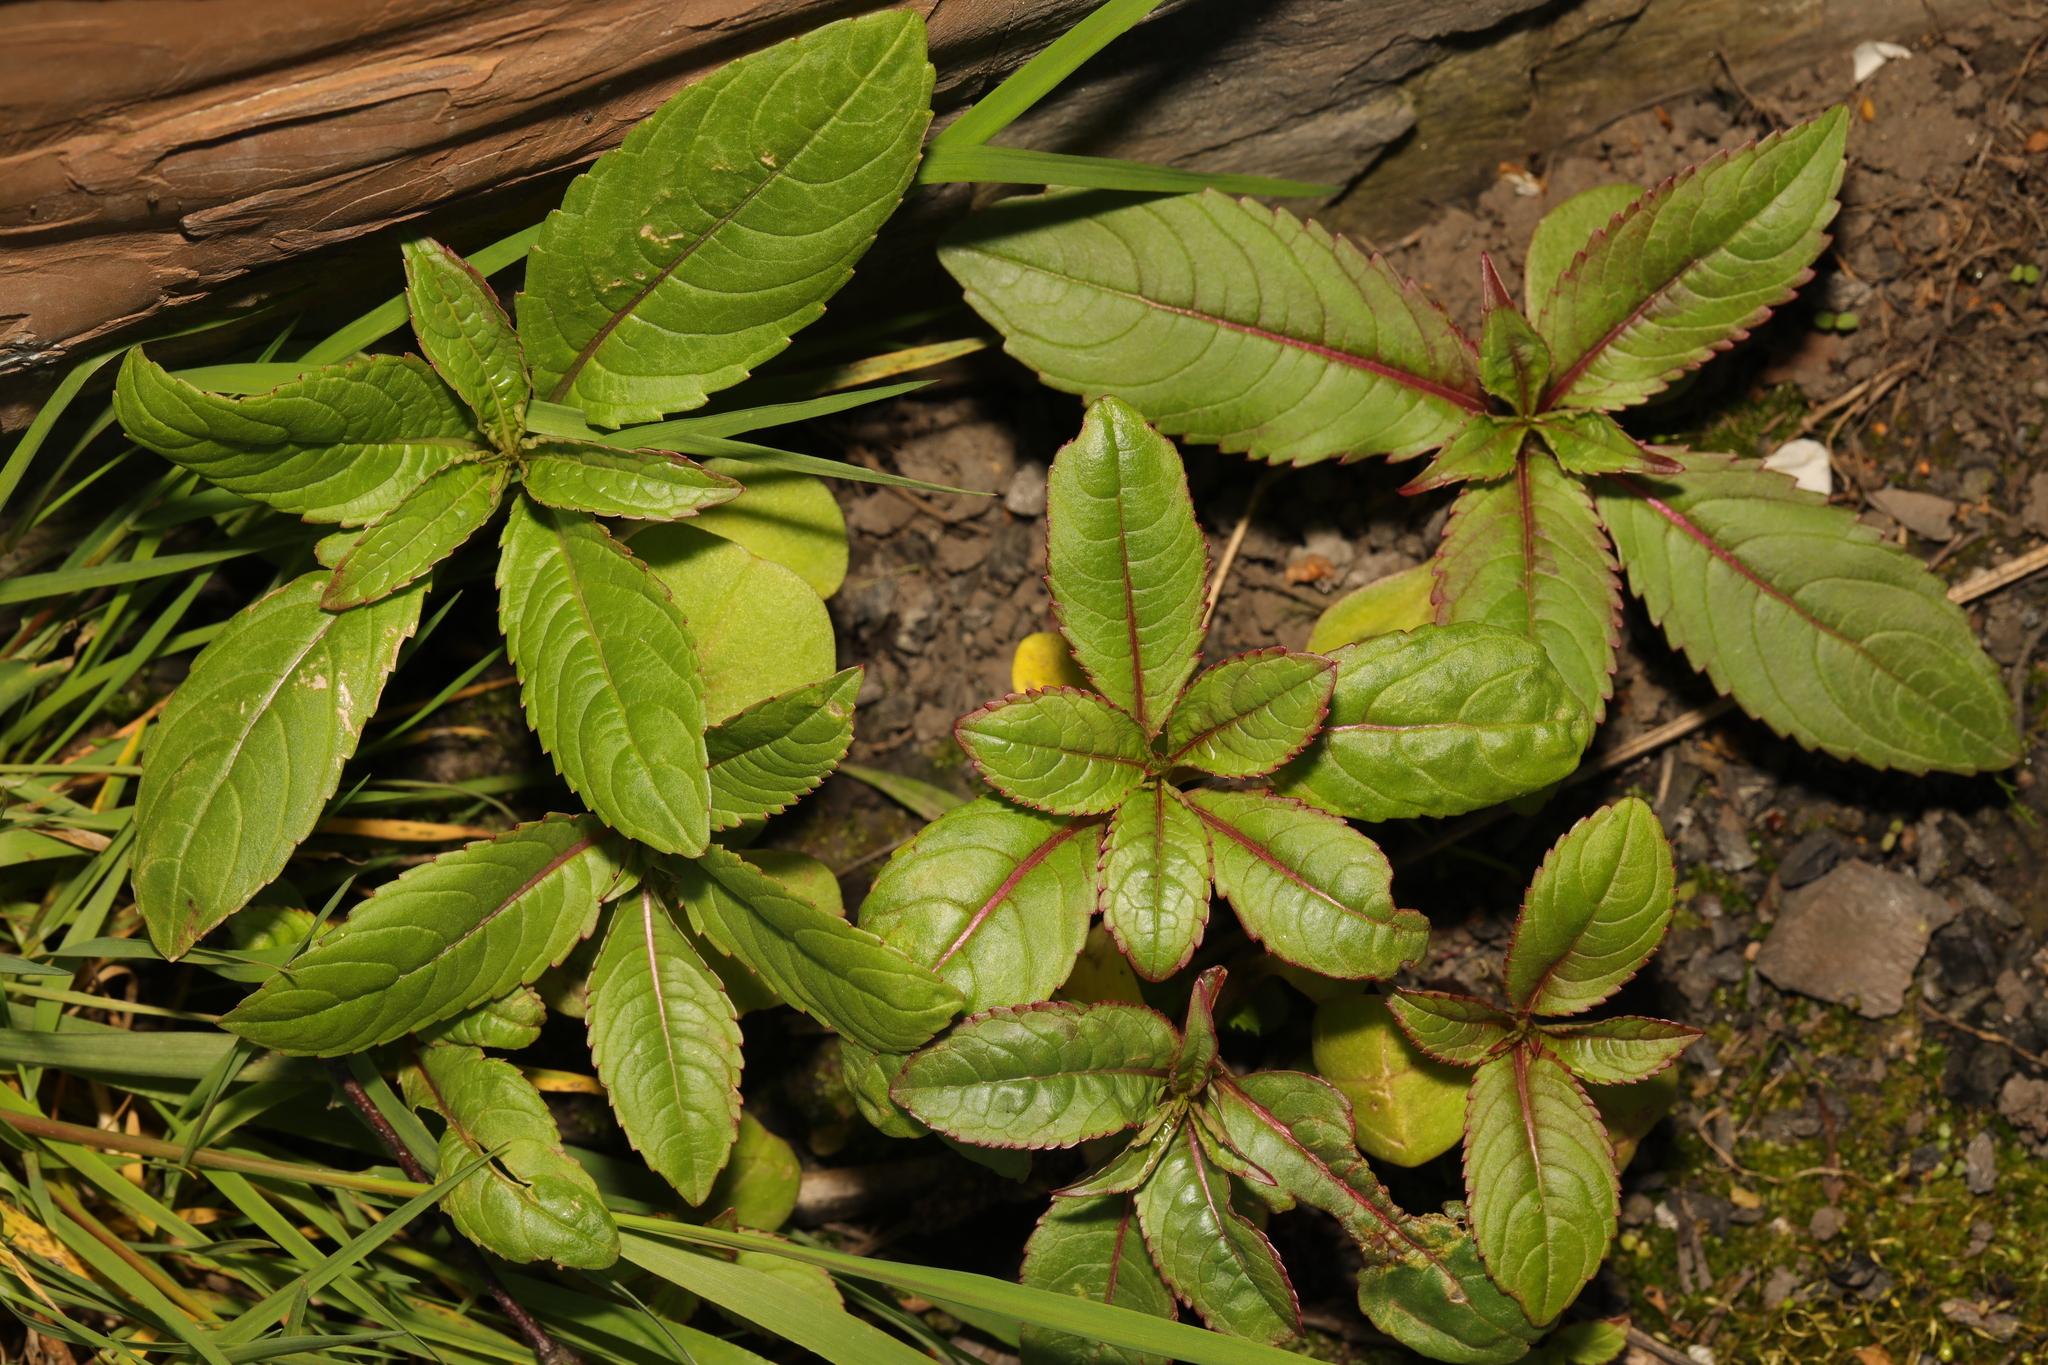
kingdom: Plantae
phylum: Tracheophyta
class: Magnoliopsida
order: Ericales
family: Balsaminaceae
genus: Impatiens
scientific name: Impatiens glandulifera
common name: Himalayan balsam
